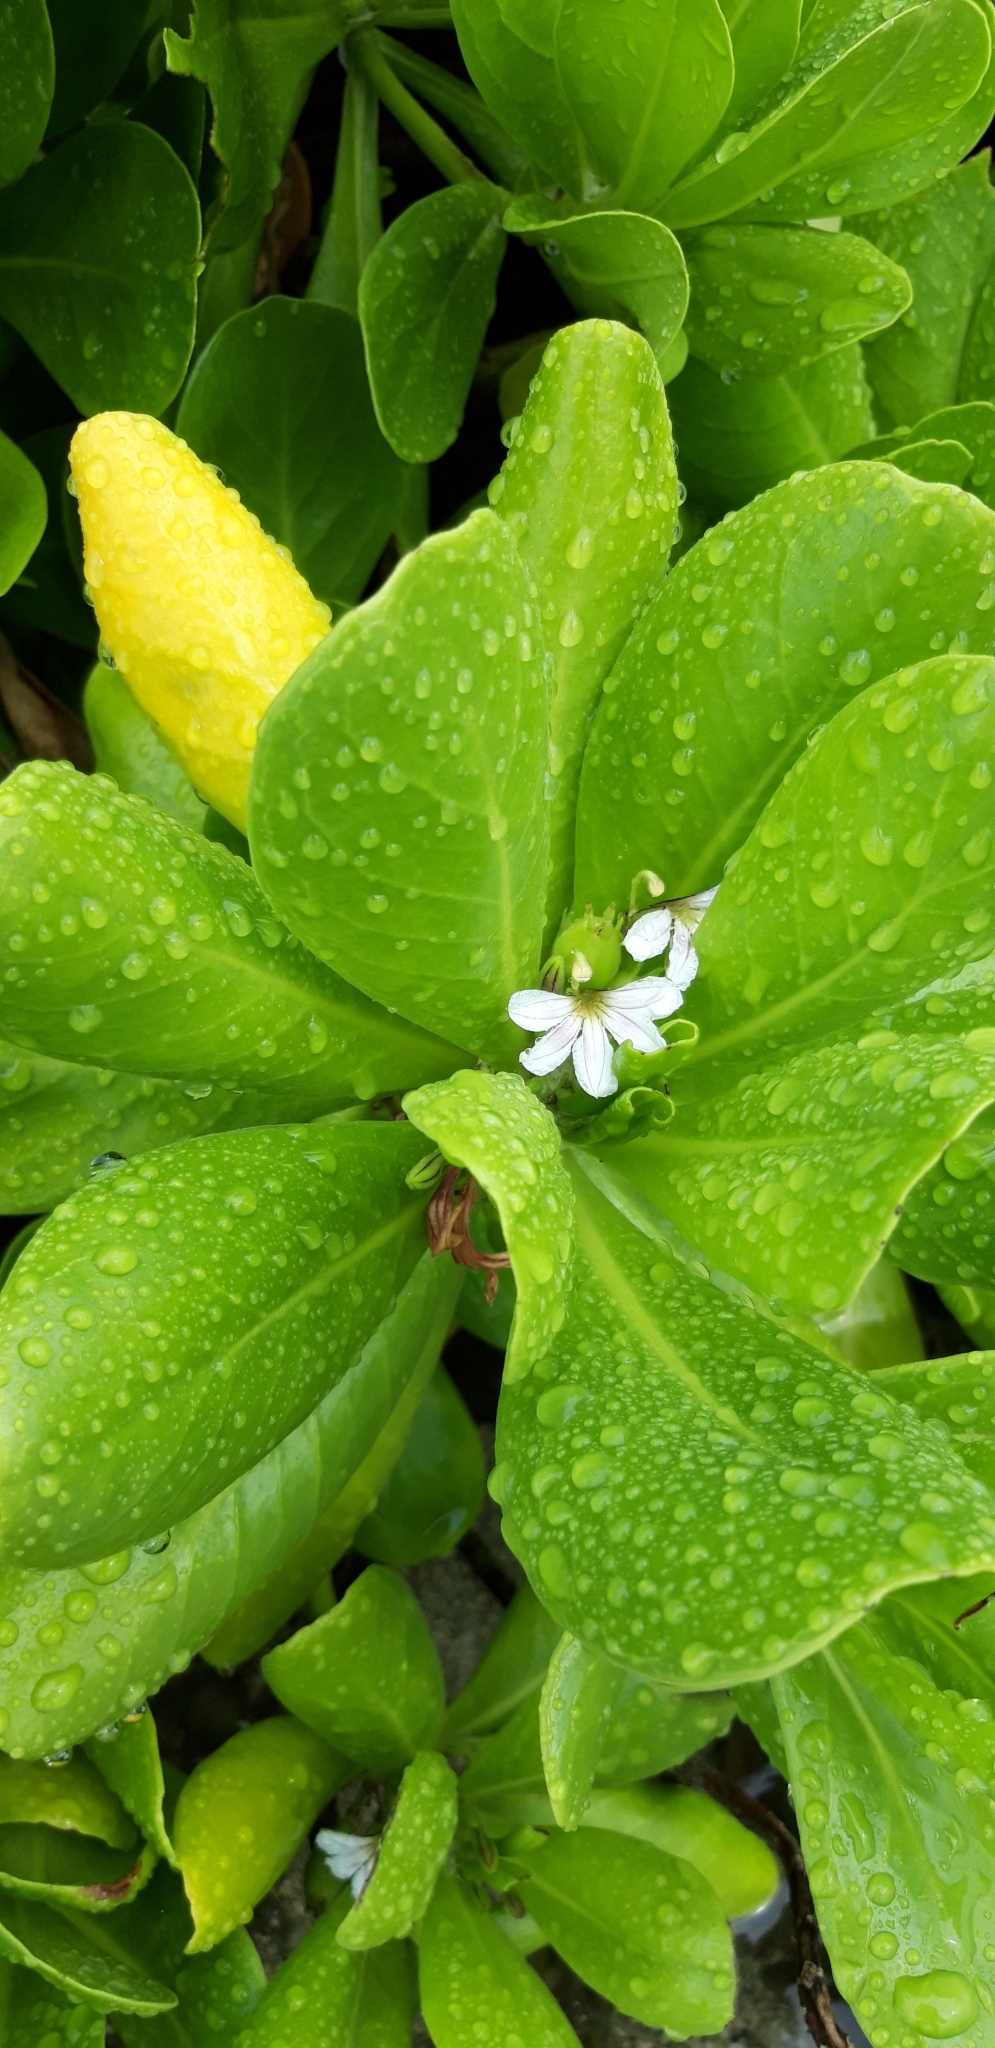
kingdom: Plantae
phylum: Tracheophyta
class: Magnoliopsida
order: Asterales
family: Goodeniaceae
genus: Scaevola
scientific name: Scaevola taccada
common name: Sea lettucetree
